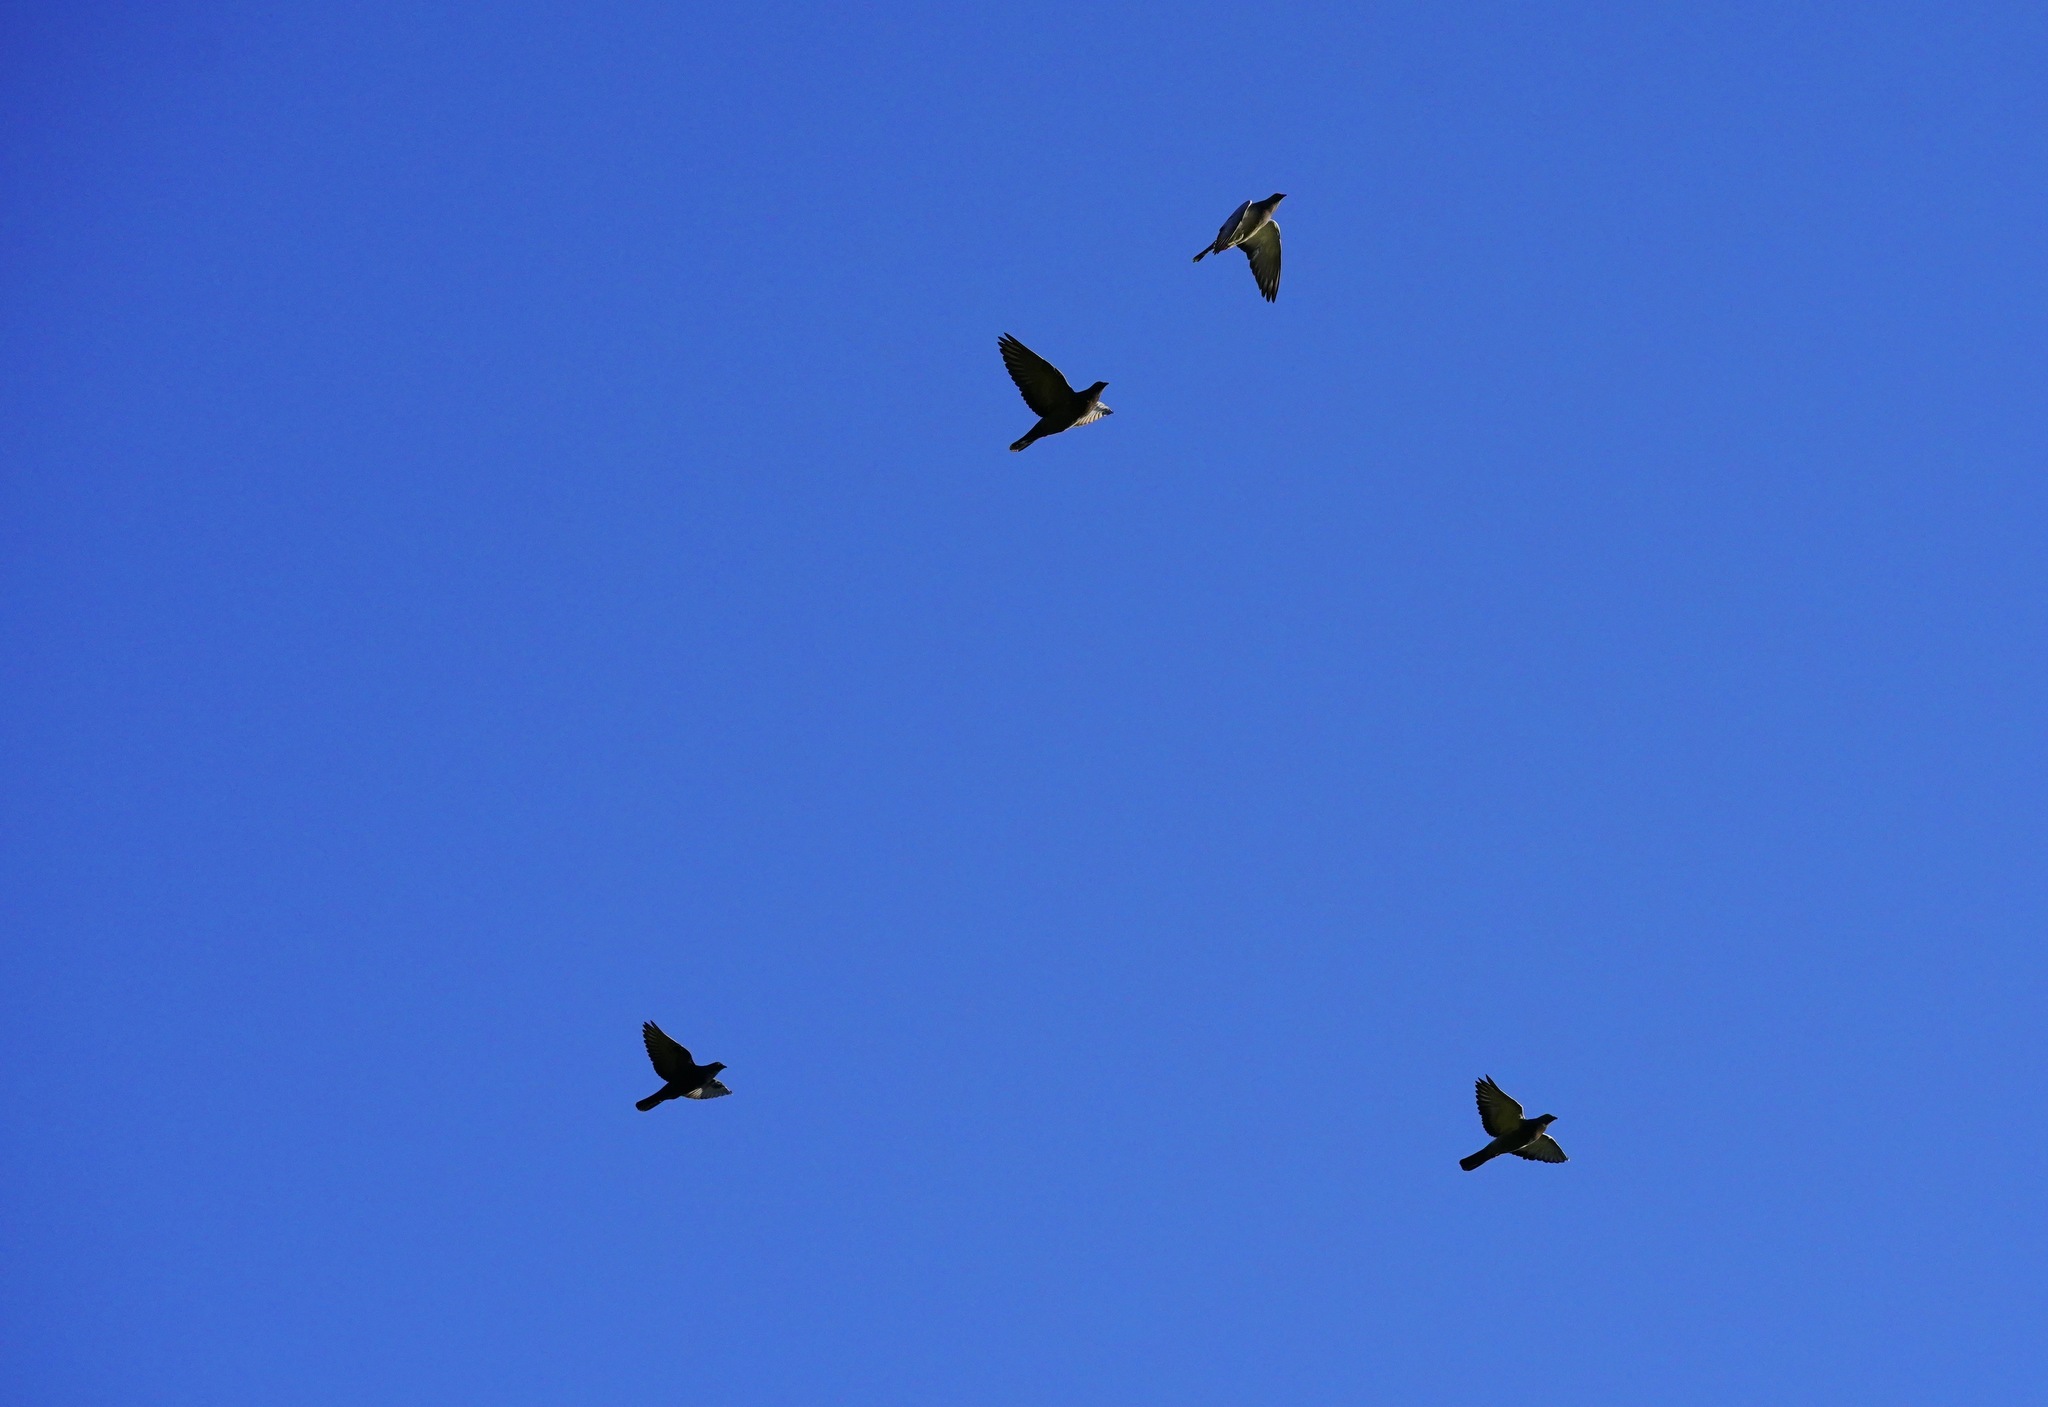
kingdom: Animalia
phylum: Chordata
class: Aves
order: Columbiformes
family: Columbidae
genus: Patagioenas
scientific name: Patagioenas fasciata
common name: Band-tailed pigeon
